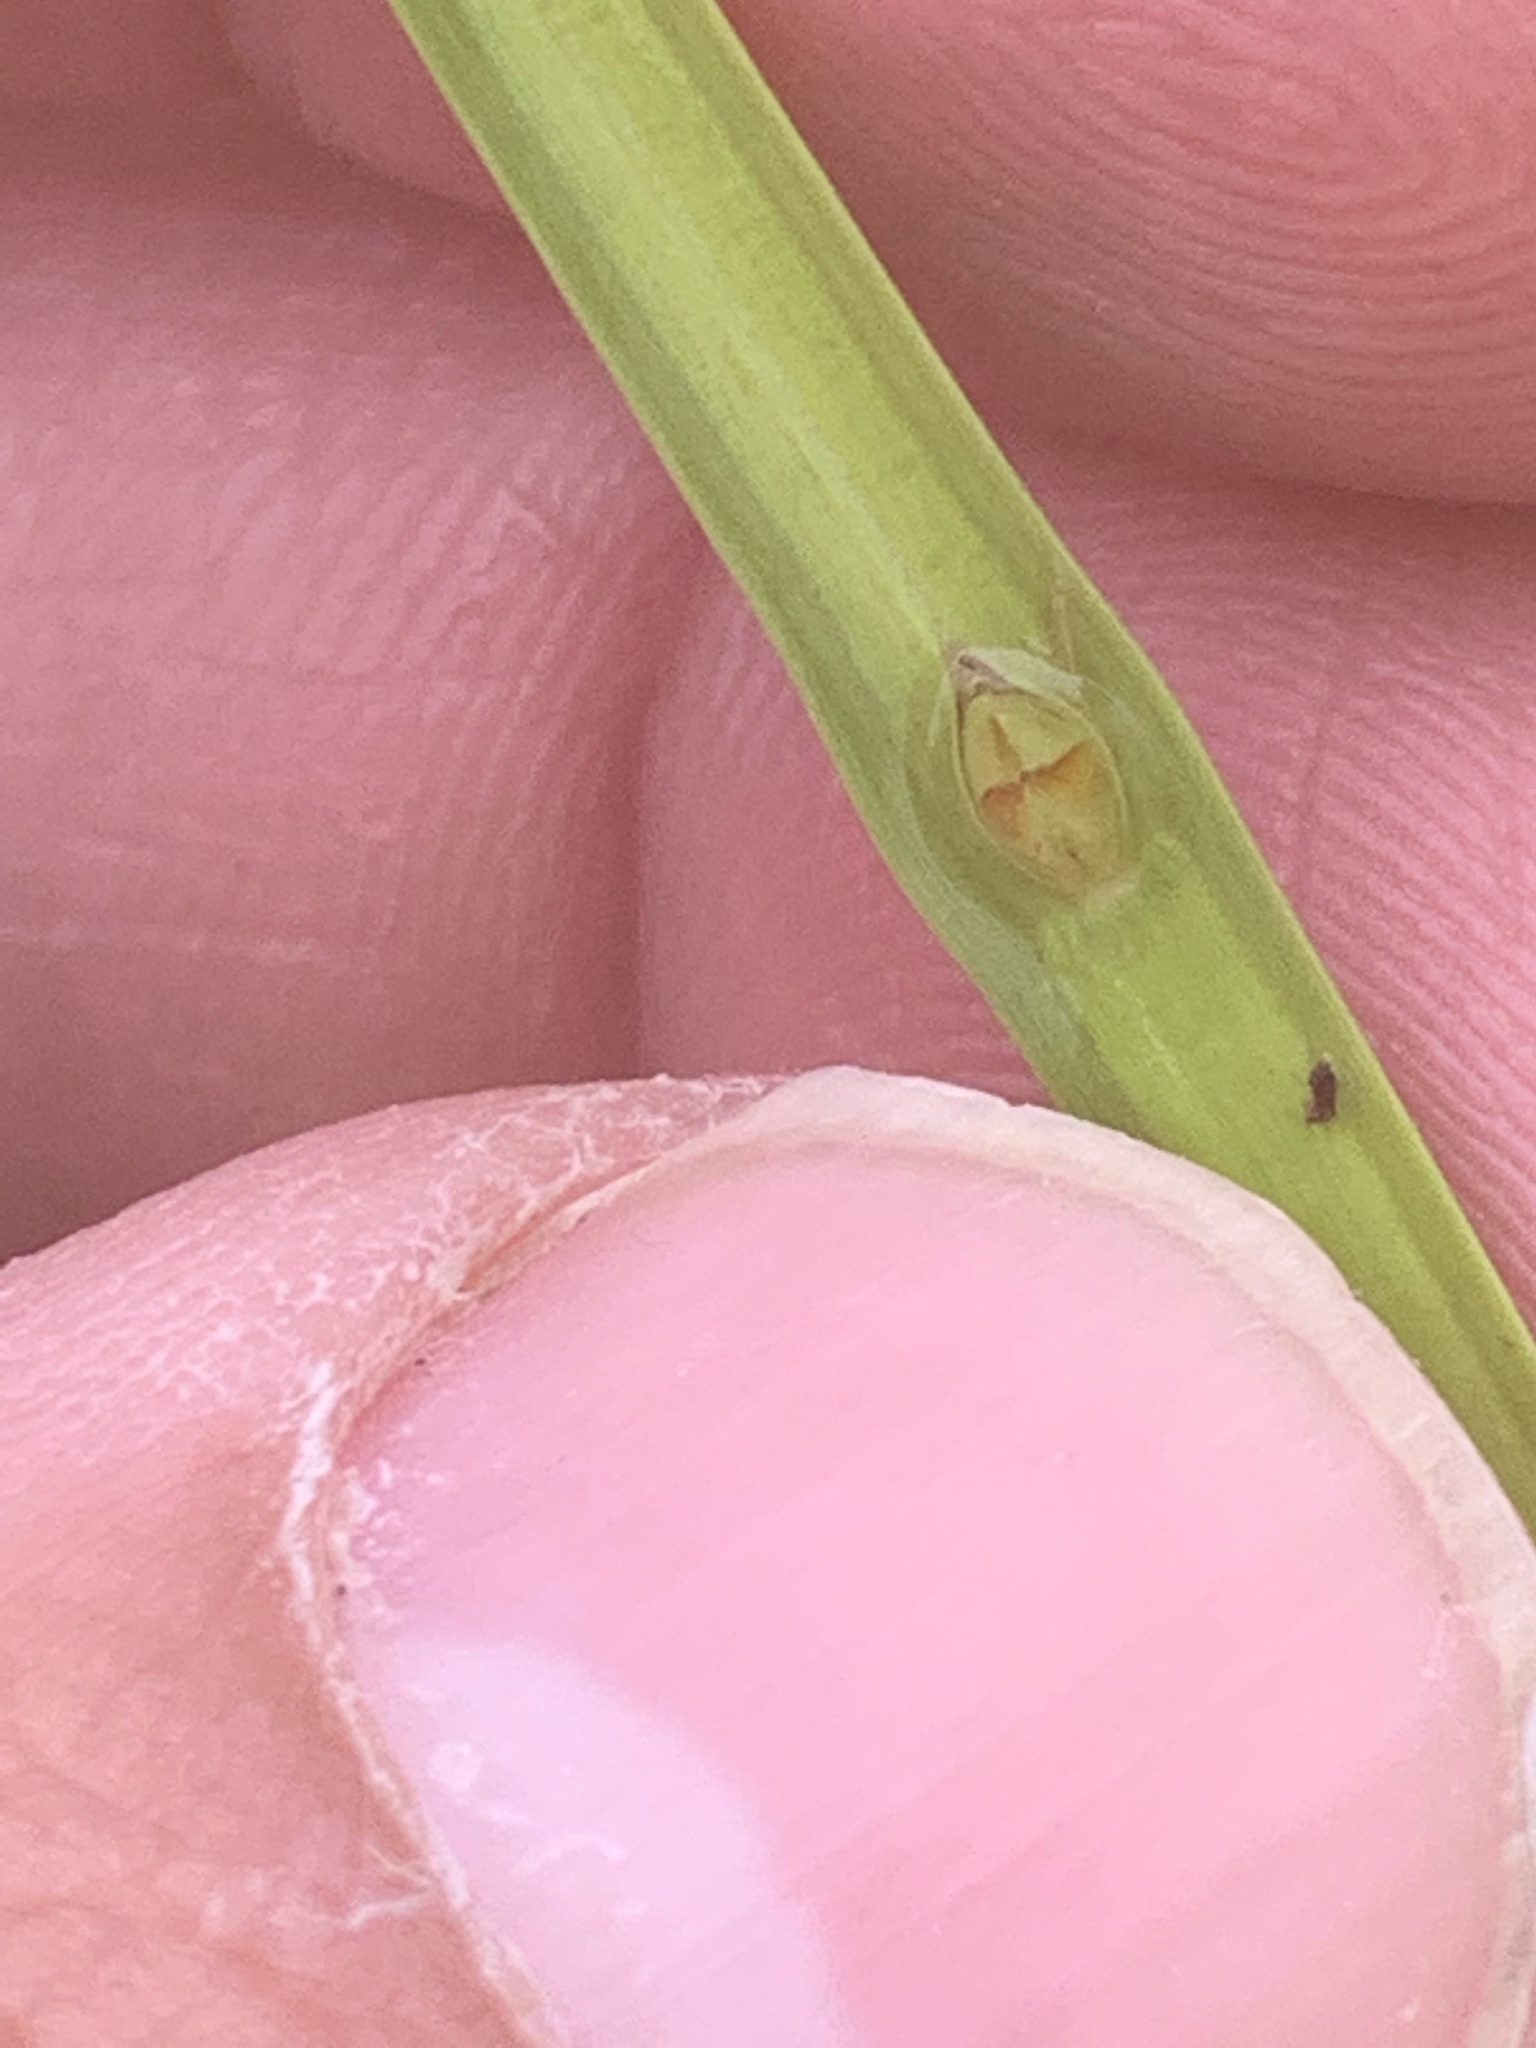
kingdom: Plantae
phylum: Tracheophyta
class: Liliopsida
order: Poales
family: Cyperaceae
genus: Schoenoplectiella
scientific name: Schoenoplectiella mucronata
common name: Bog bulrush
